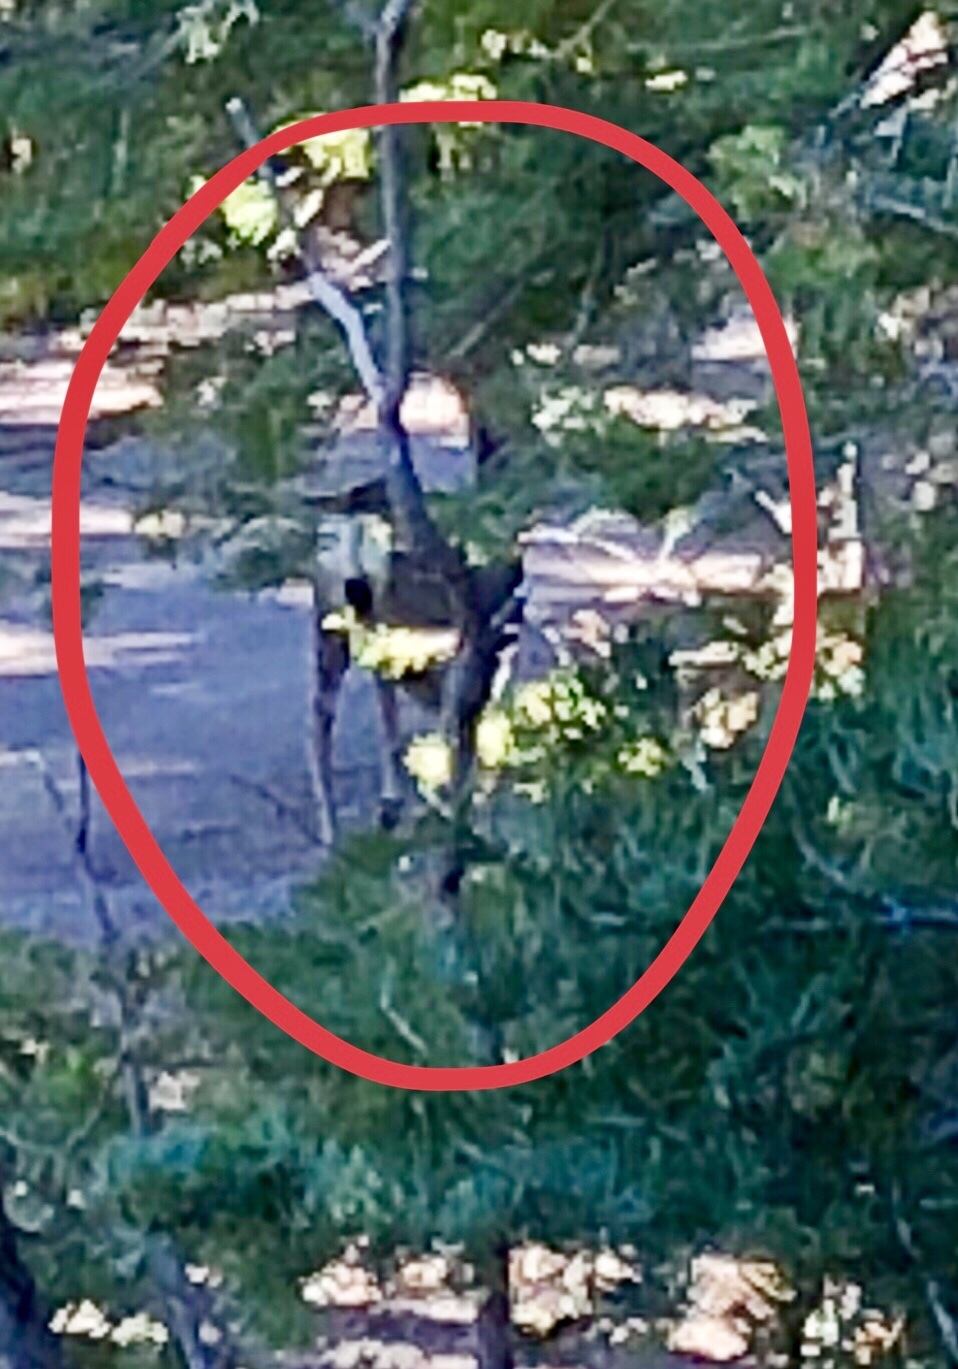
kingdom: Animalia
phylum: Chordata
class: Mammalia
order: Artiodactyla
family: Cervidae
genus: Odocoileus
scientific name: Odocoileus hemionus
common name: Mule deer
